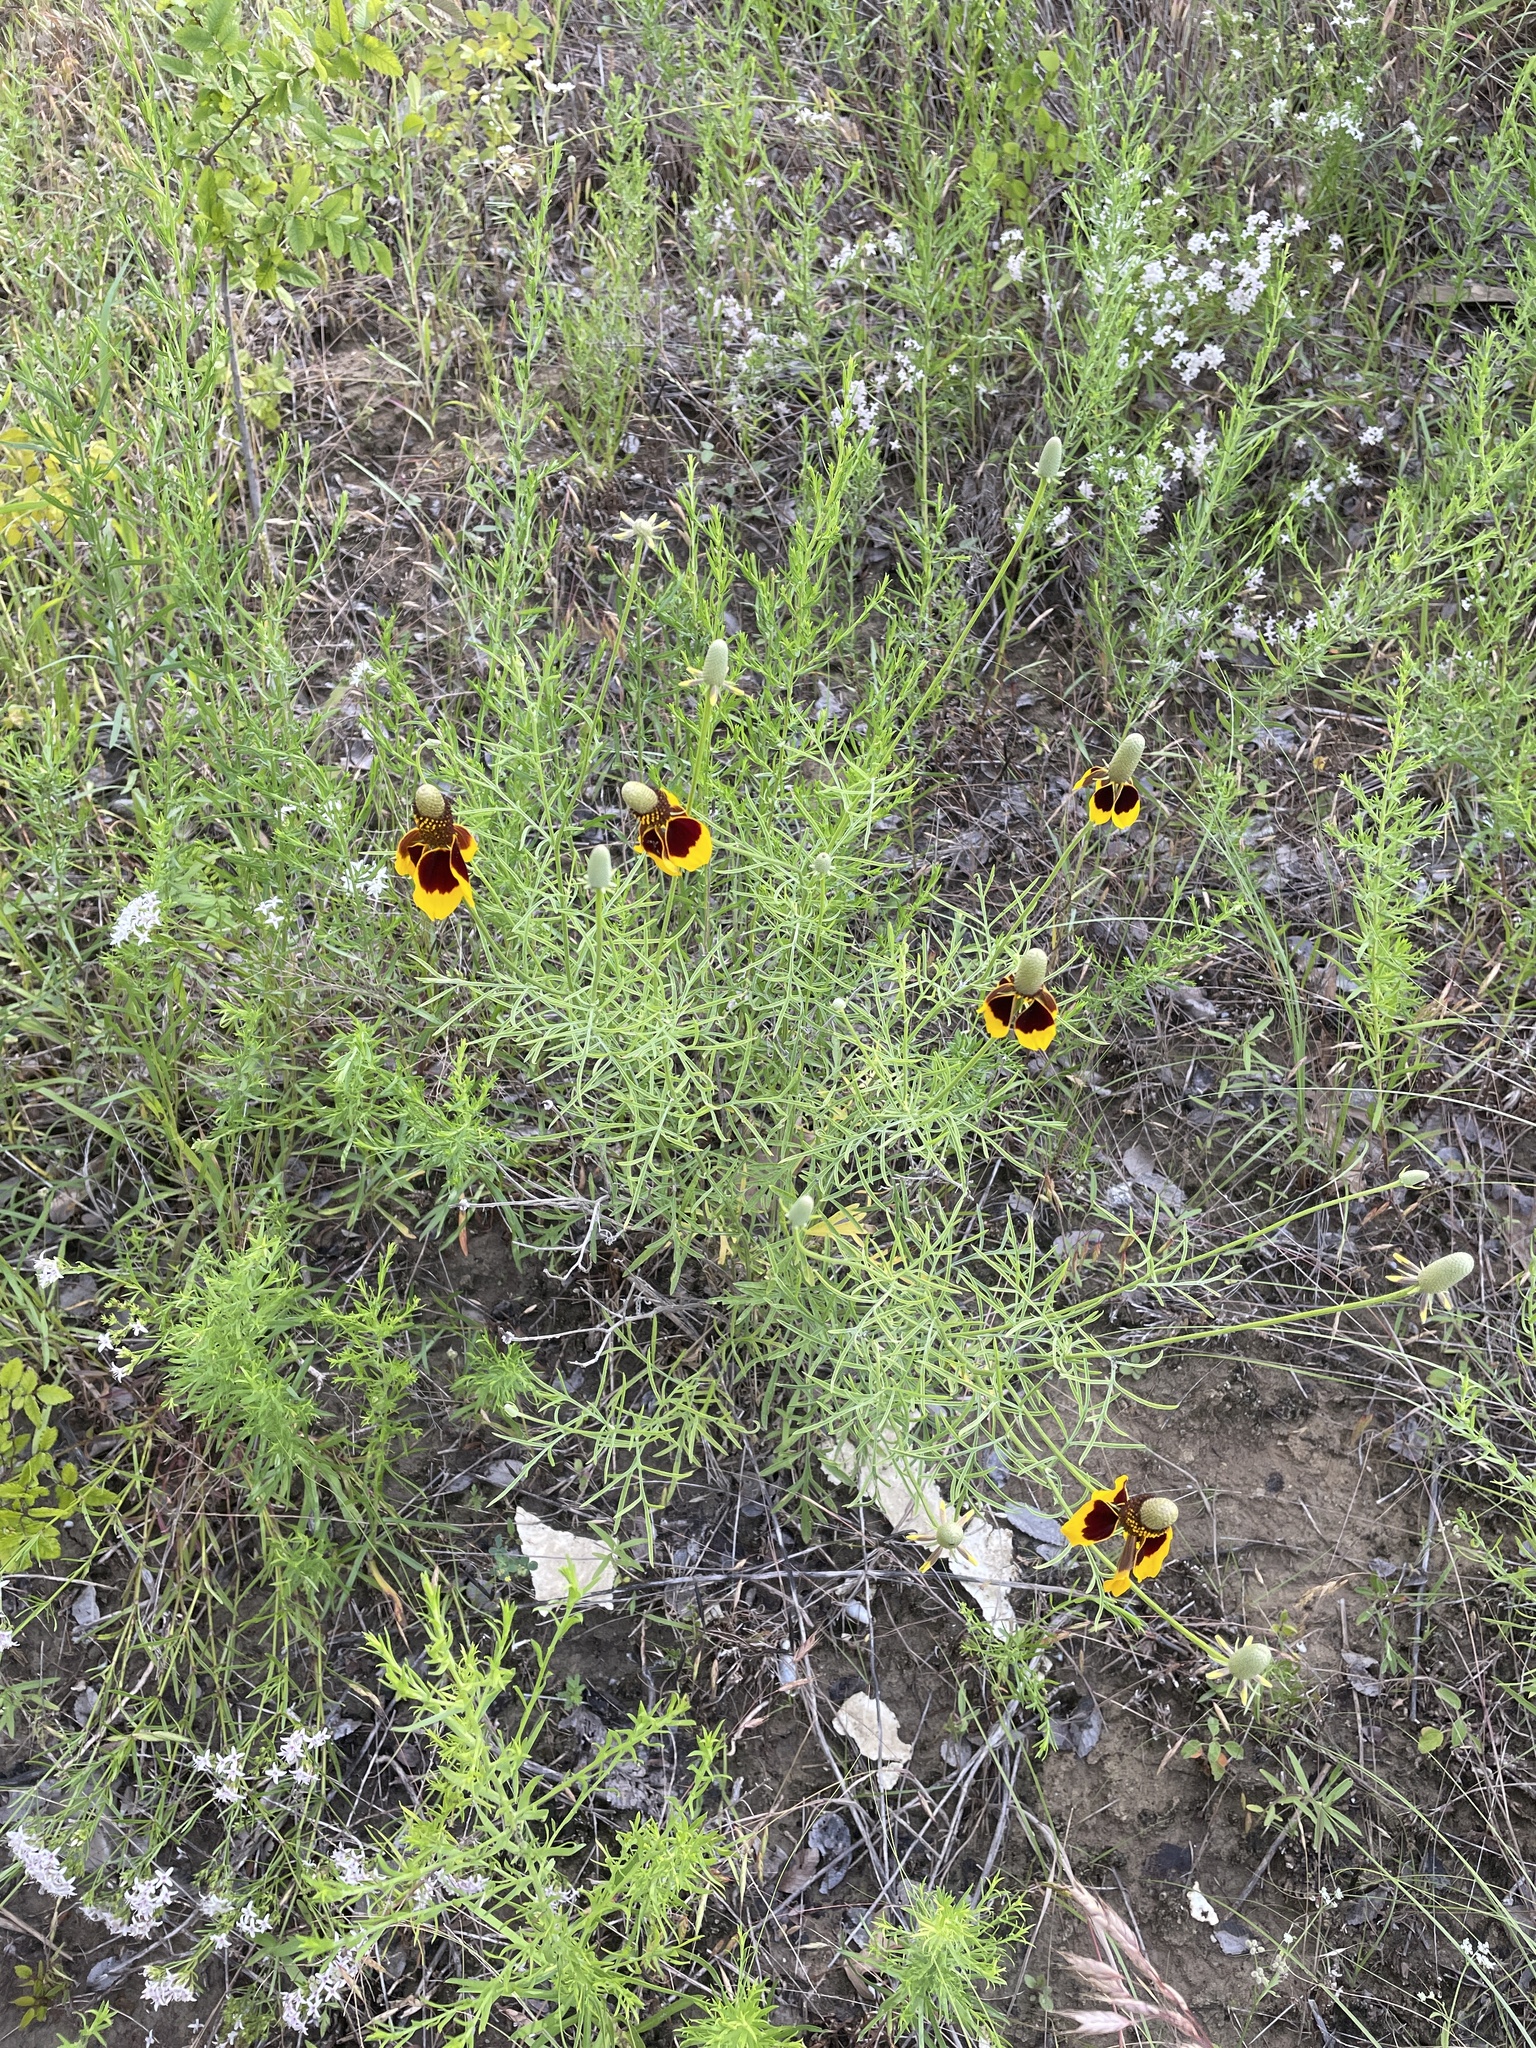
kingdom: Plantae
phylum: Tracheophyta
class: Magnoliopsida
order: Asterales
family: Asteraceae
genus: Ratibida
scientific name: Ratibida columnifera
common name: Prairie coneflower
